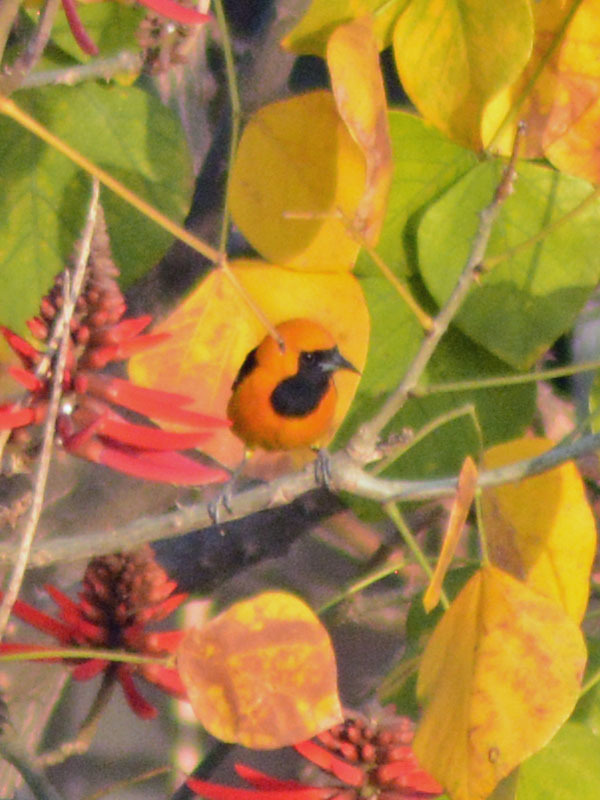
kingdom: Animalia
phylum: Chordata
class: Aves
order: Passeriformes
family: Icteridae
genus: Icterus
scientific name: Icterus cucullatus
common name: Hooded oriole
